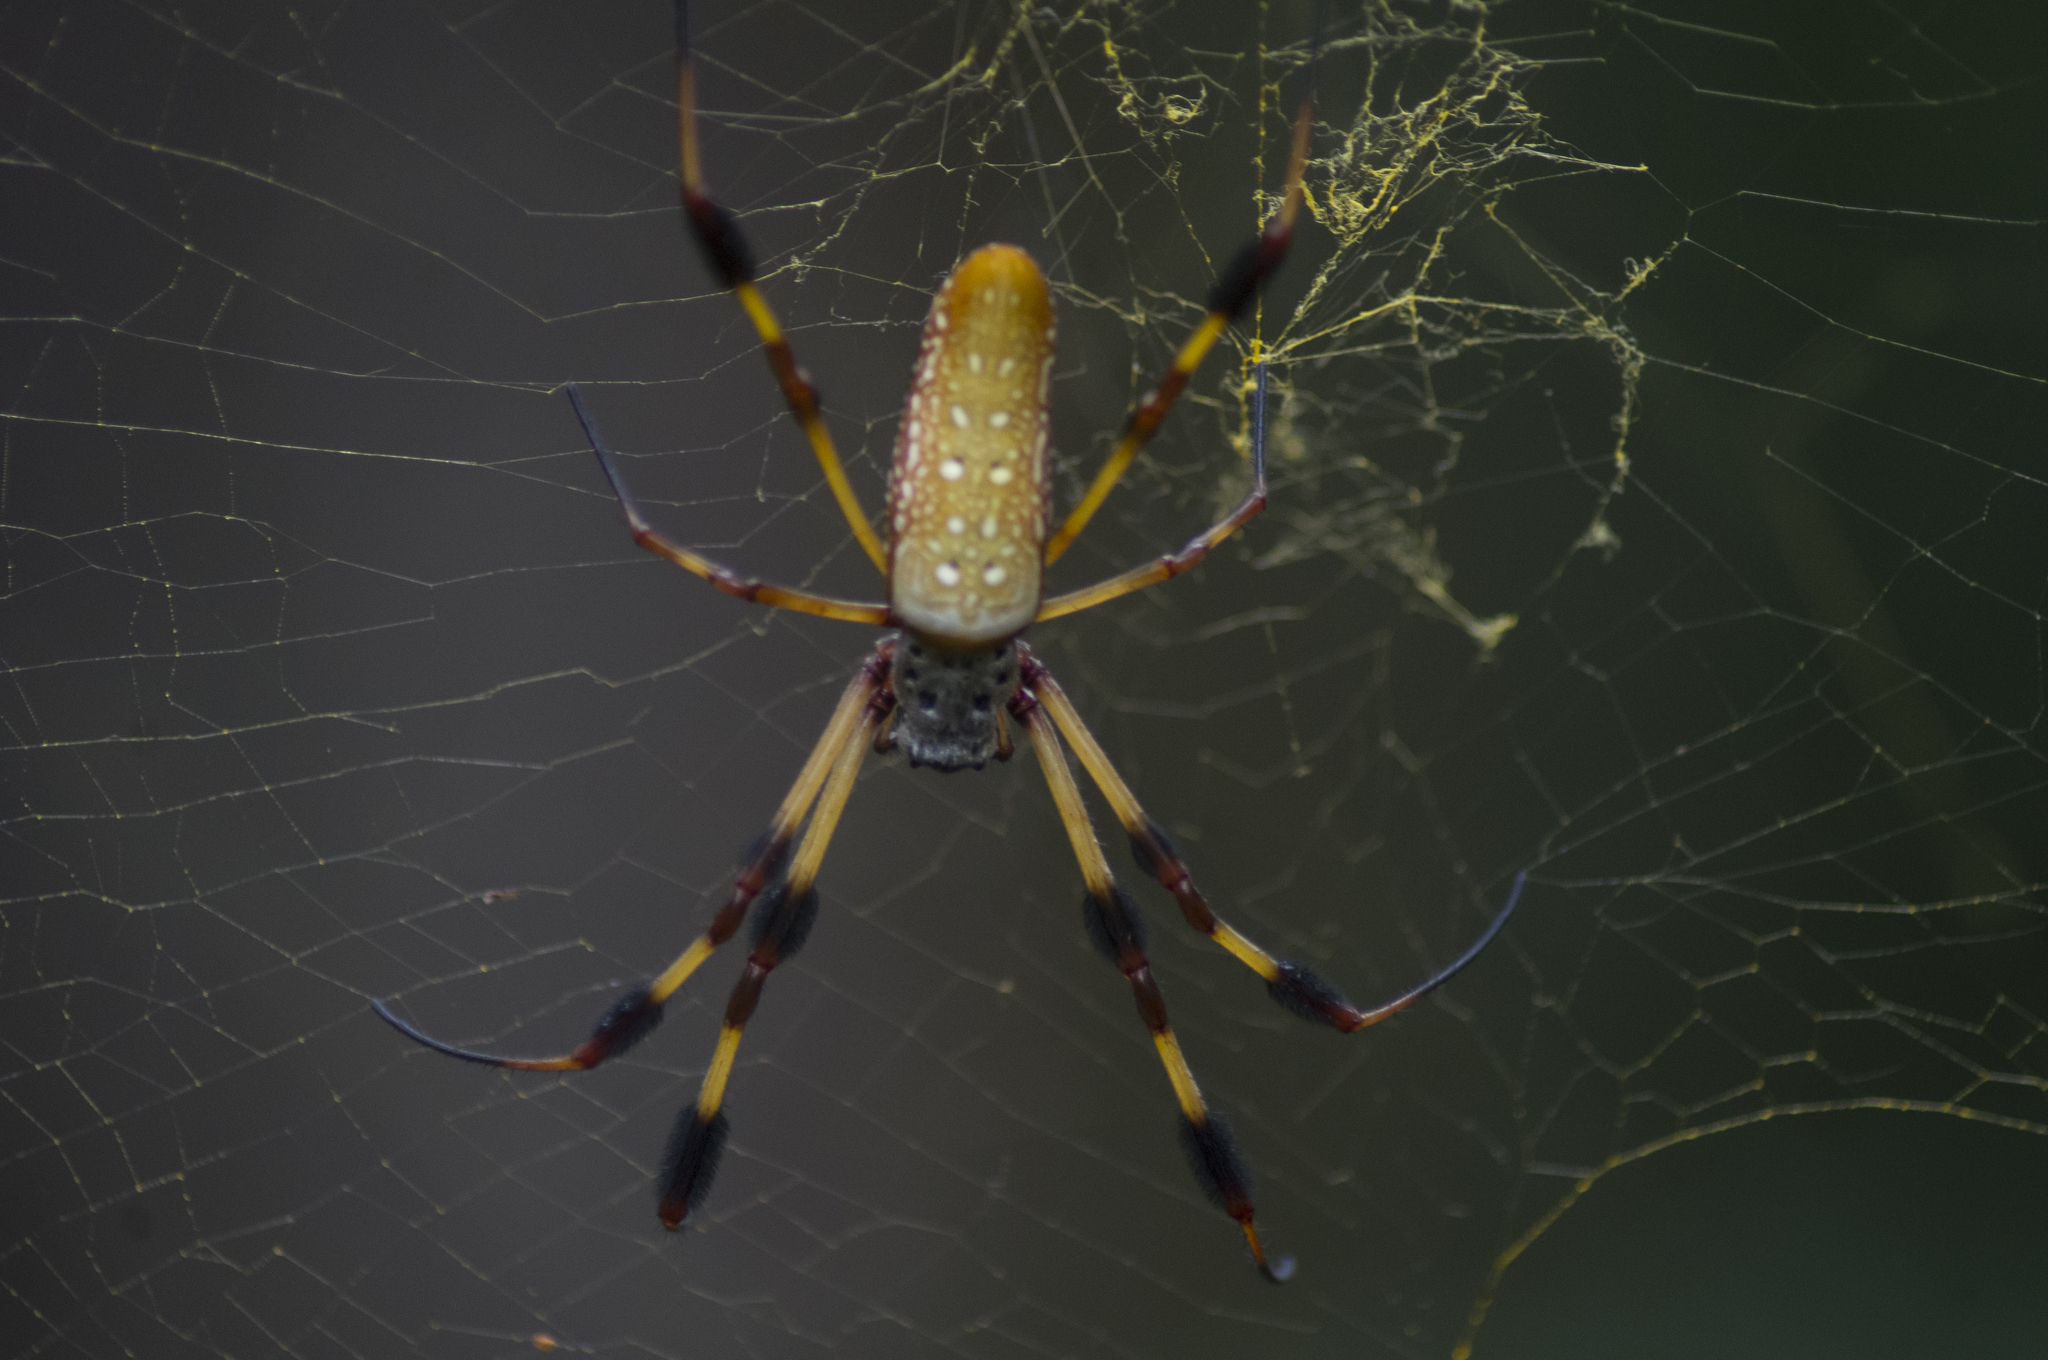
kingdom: Animalia
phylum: Arthropoda
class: Arachnida
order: Araneae
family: Araneidae
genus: Trichonephila
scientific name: Trichonephila clavipes
